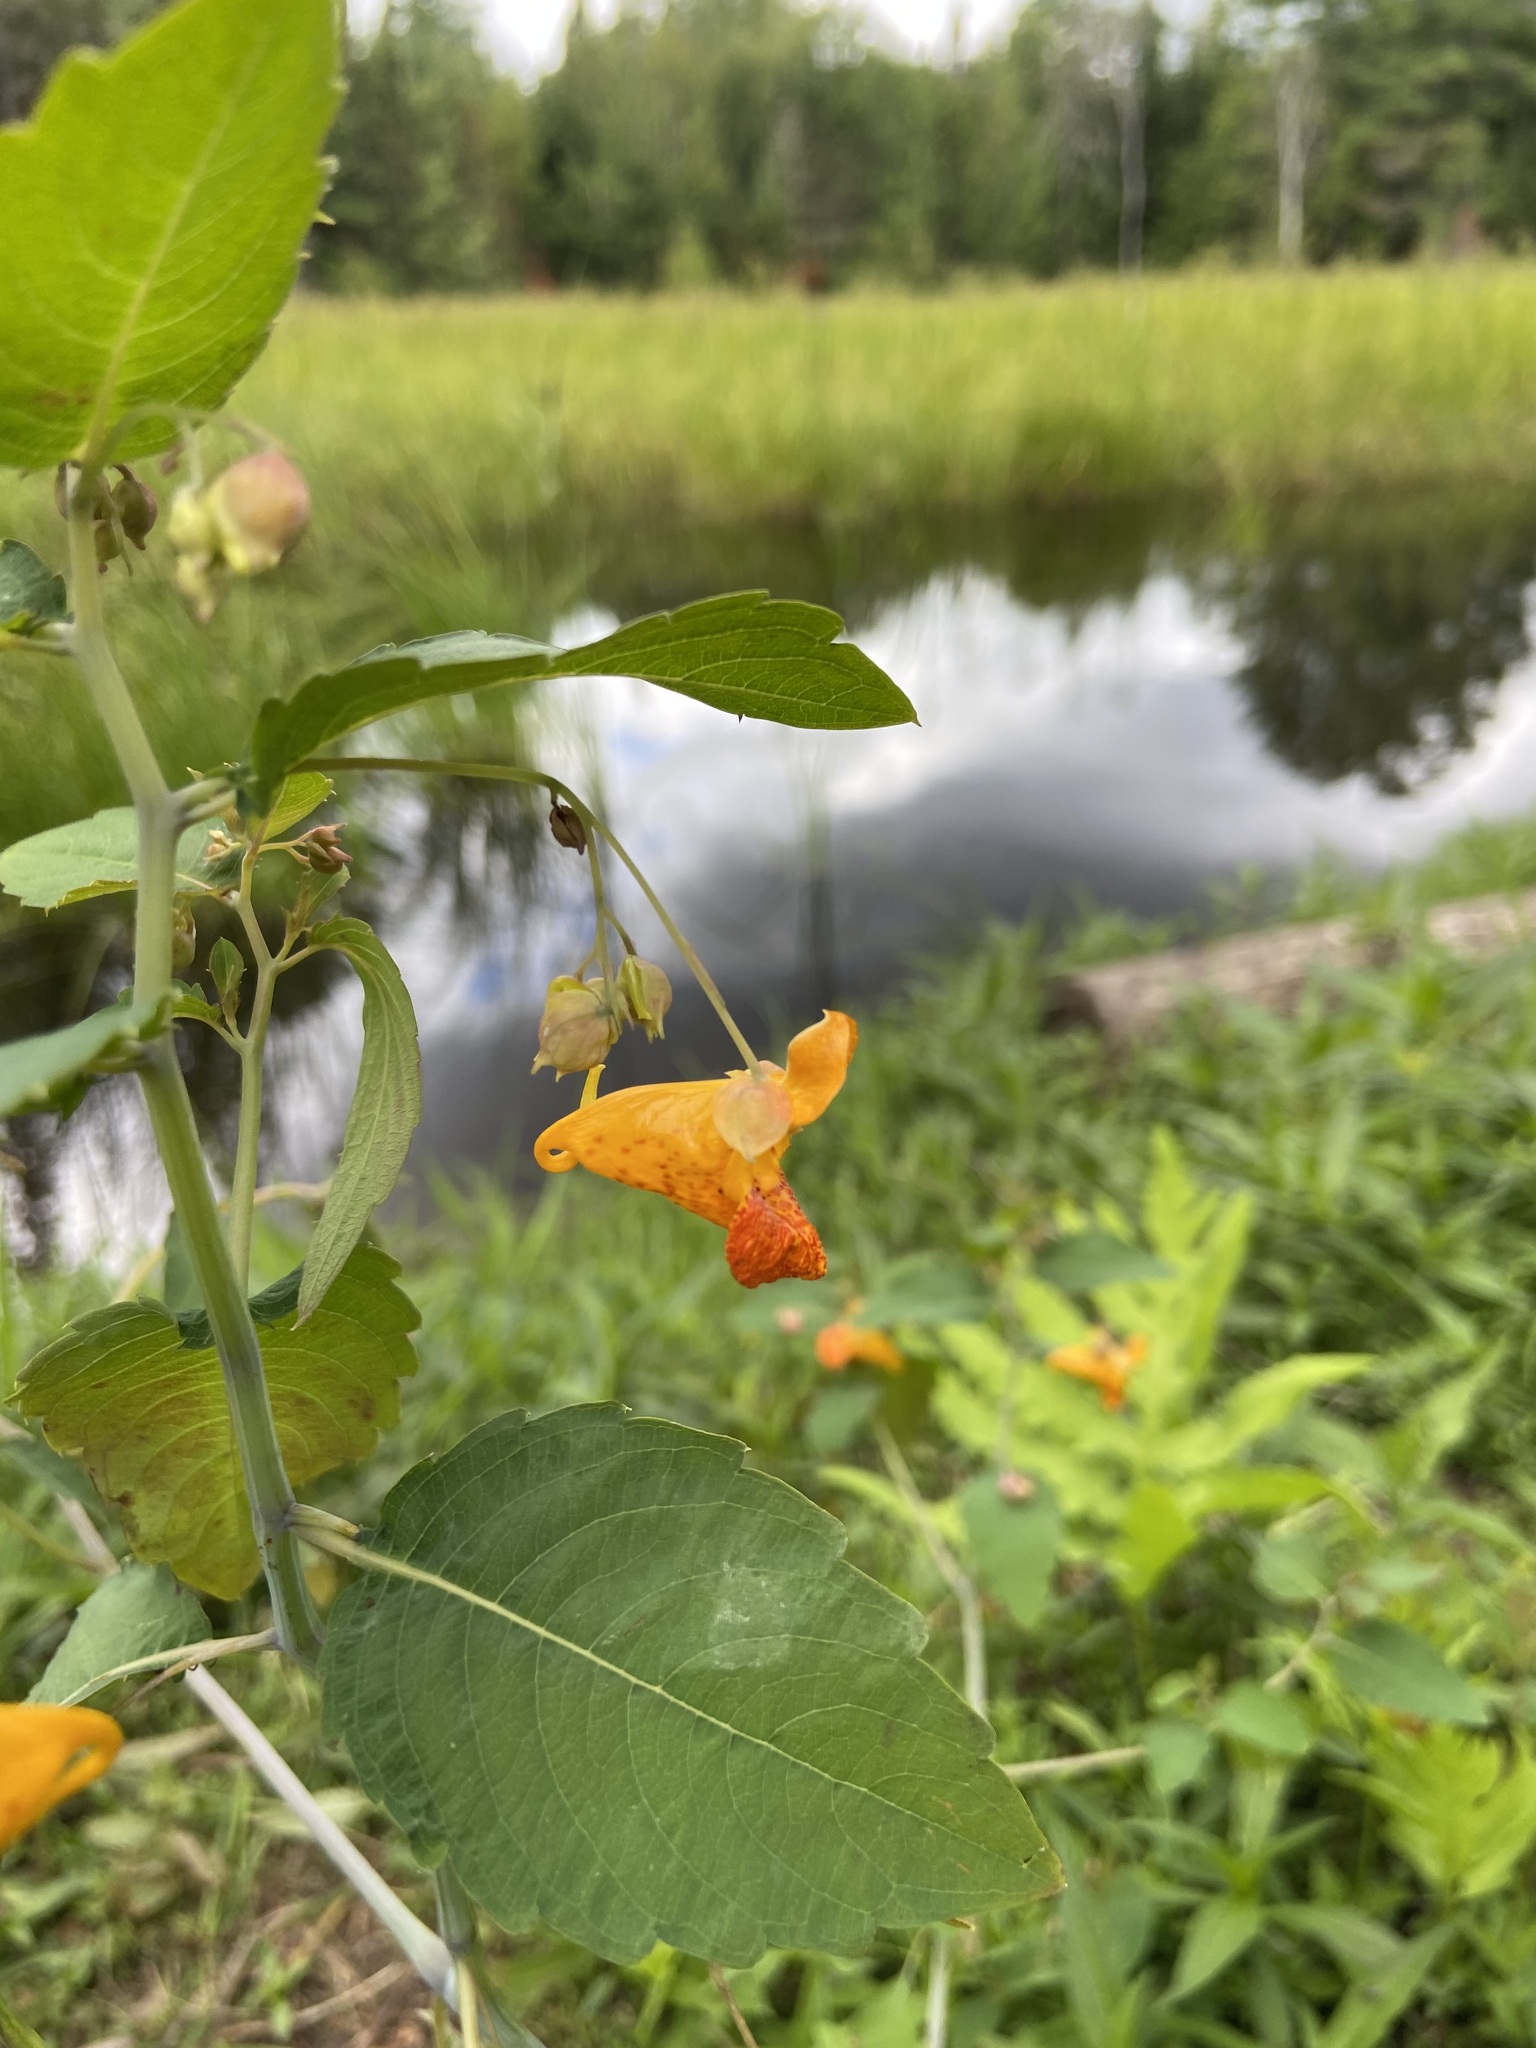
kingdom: Plantae
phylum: Tracheophyta
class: Magnoliopsida
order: Ericales
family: Balsaminaceae
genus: Impatiens
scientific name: Impatiens capensis
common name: Orange balsam
